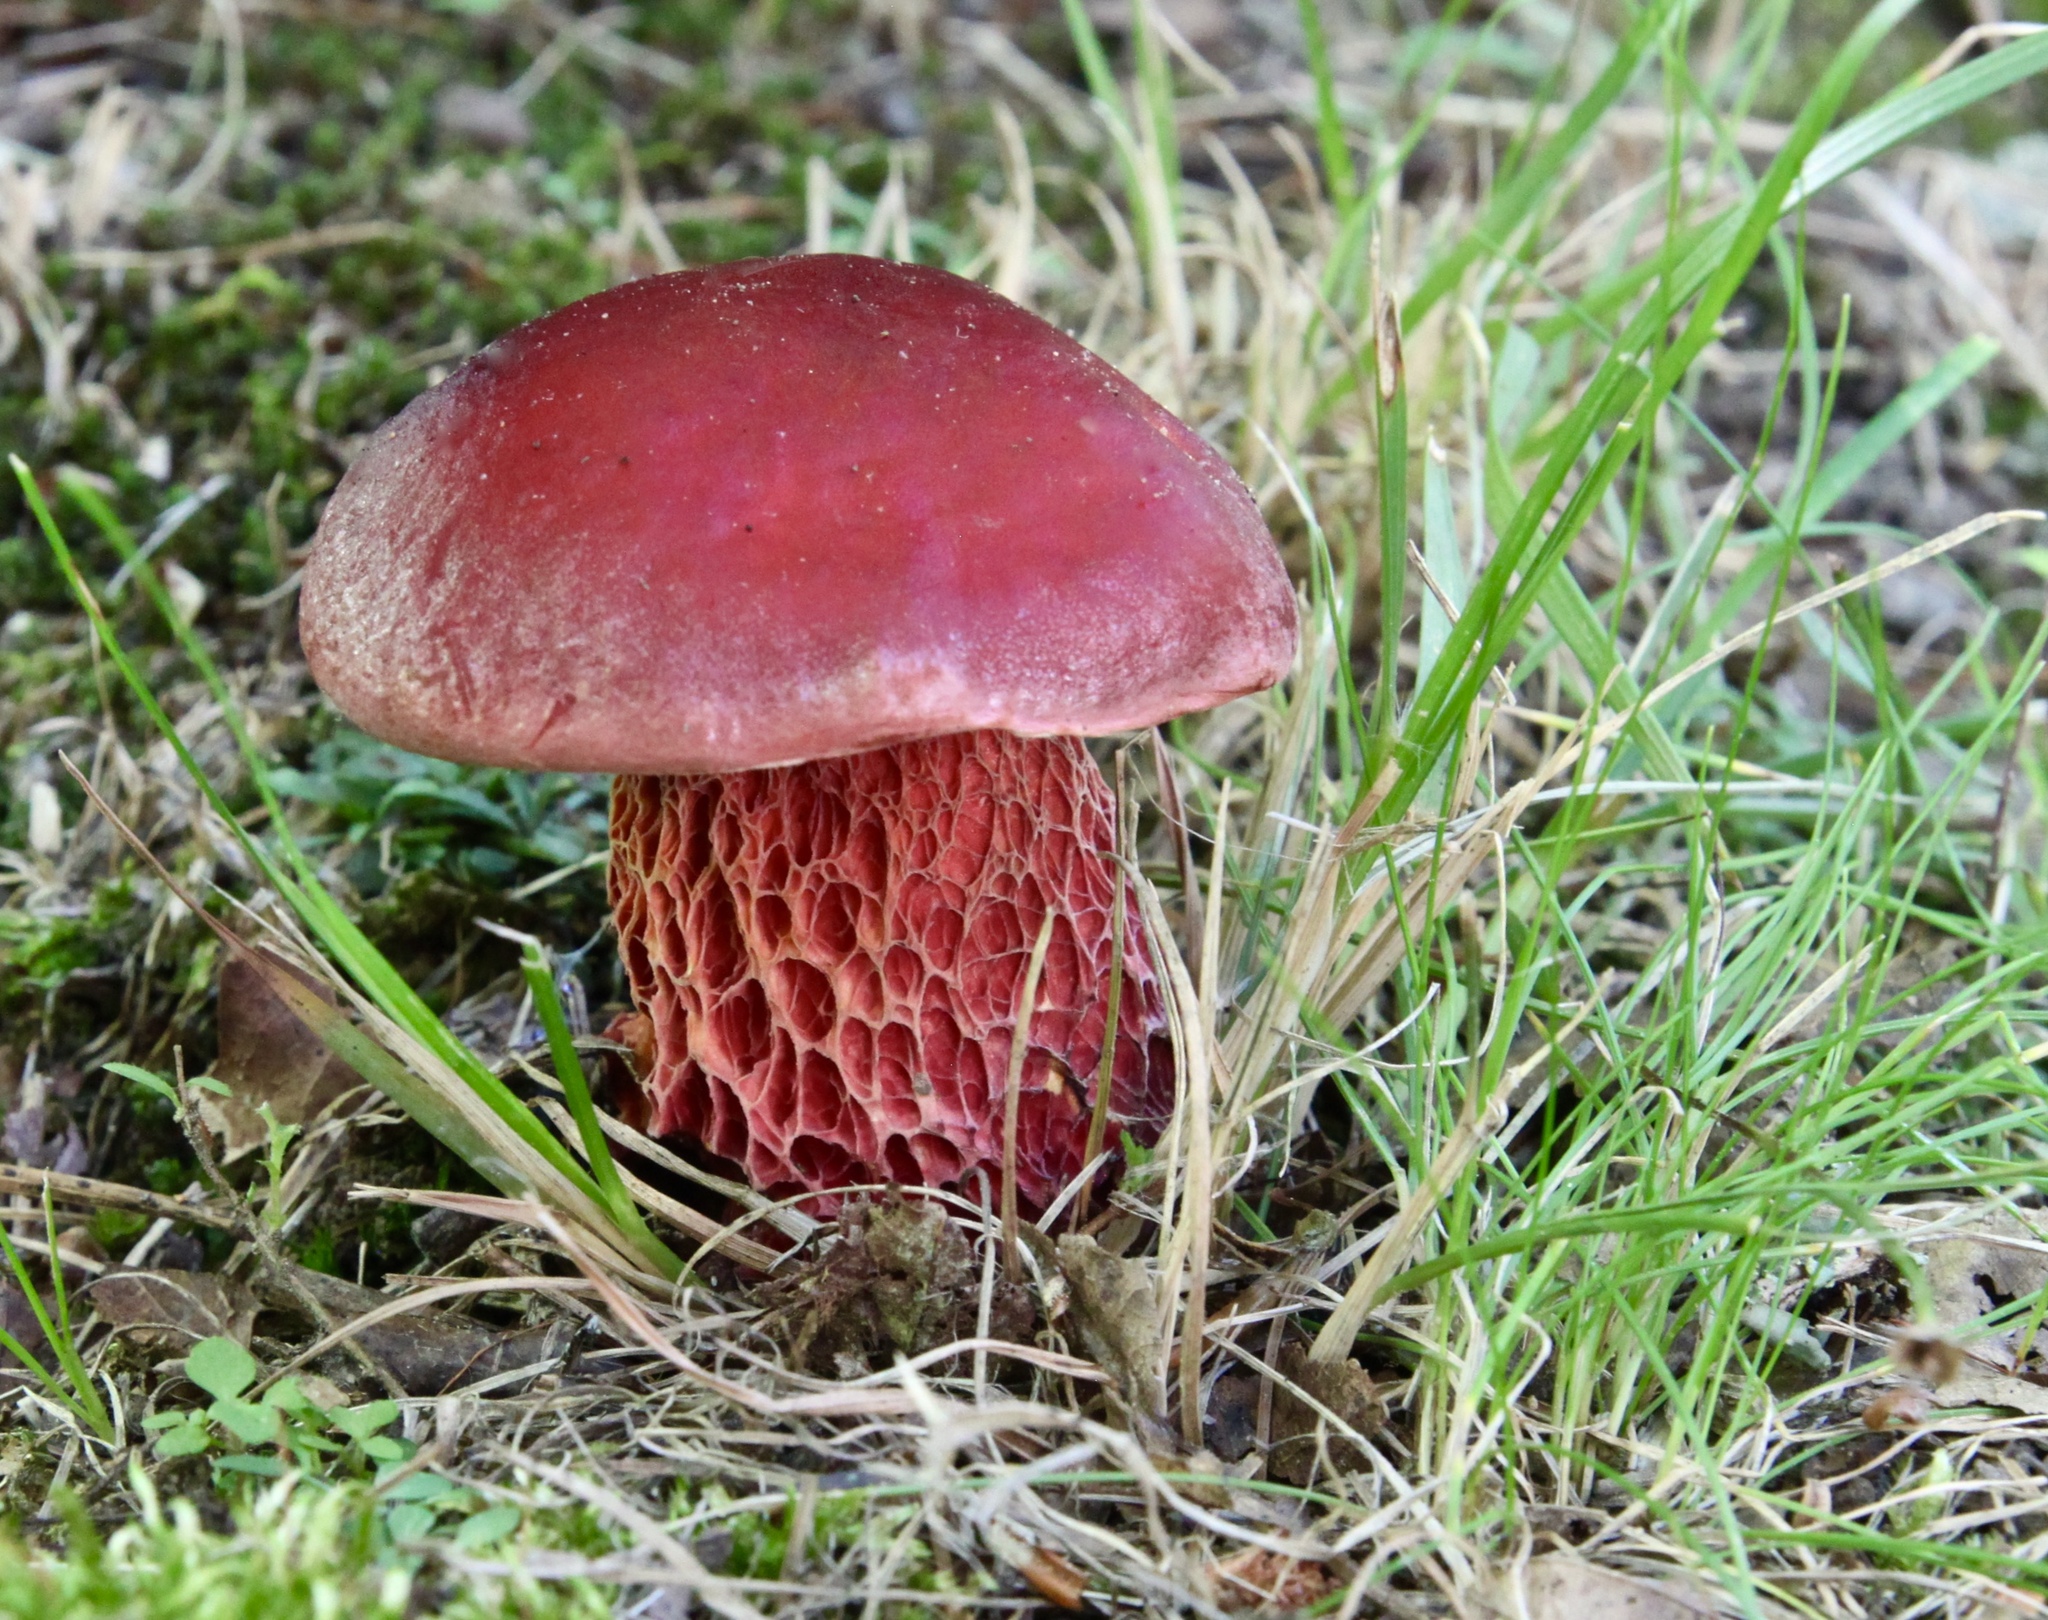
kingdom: Fungi
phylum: Basidiomycota
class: Agaricomycetes
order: Boletales
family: Boletaceae
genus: Butyriboletus
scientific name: Butyriboletus frostii
